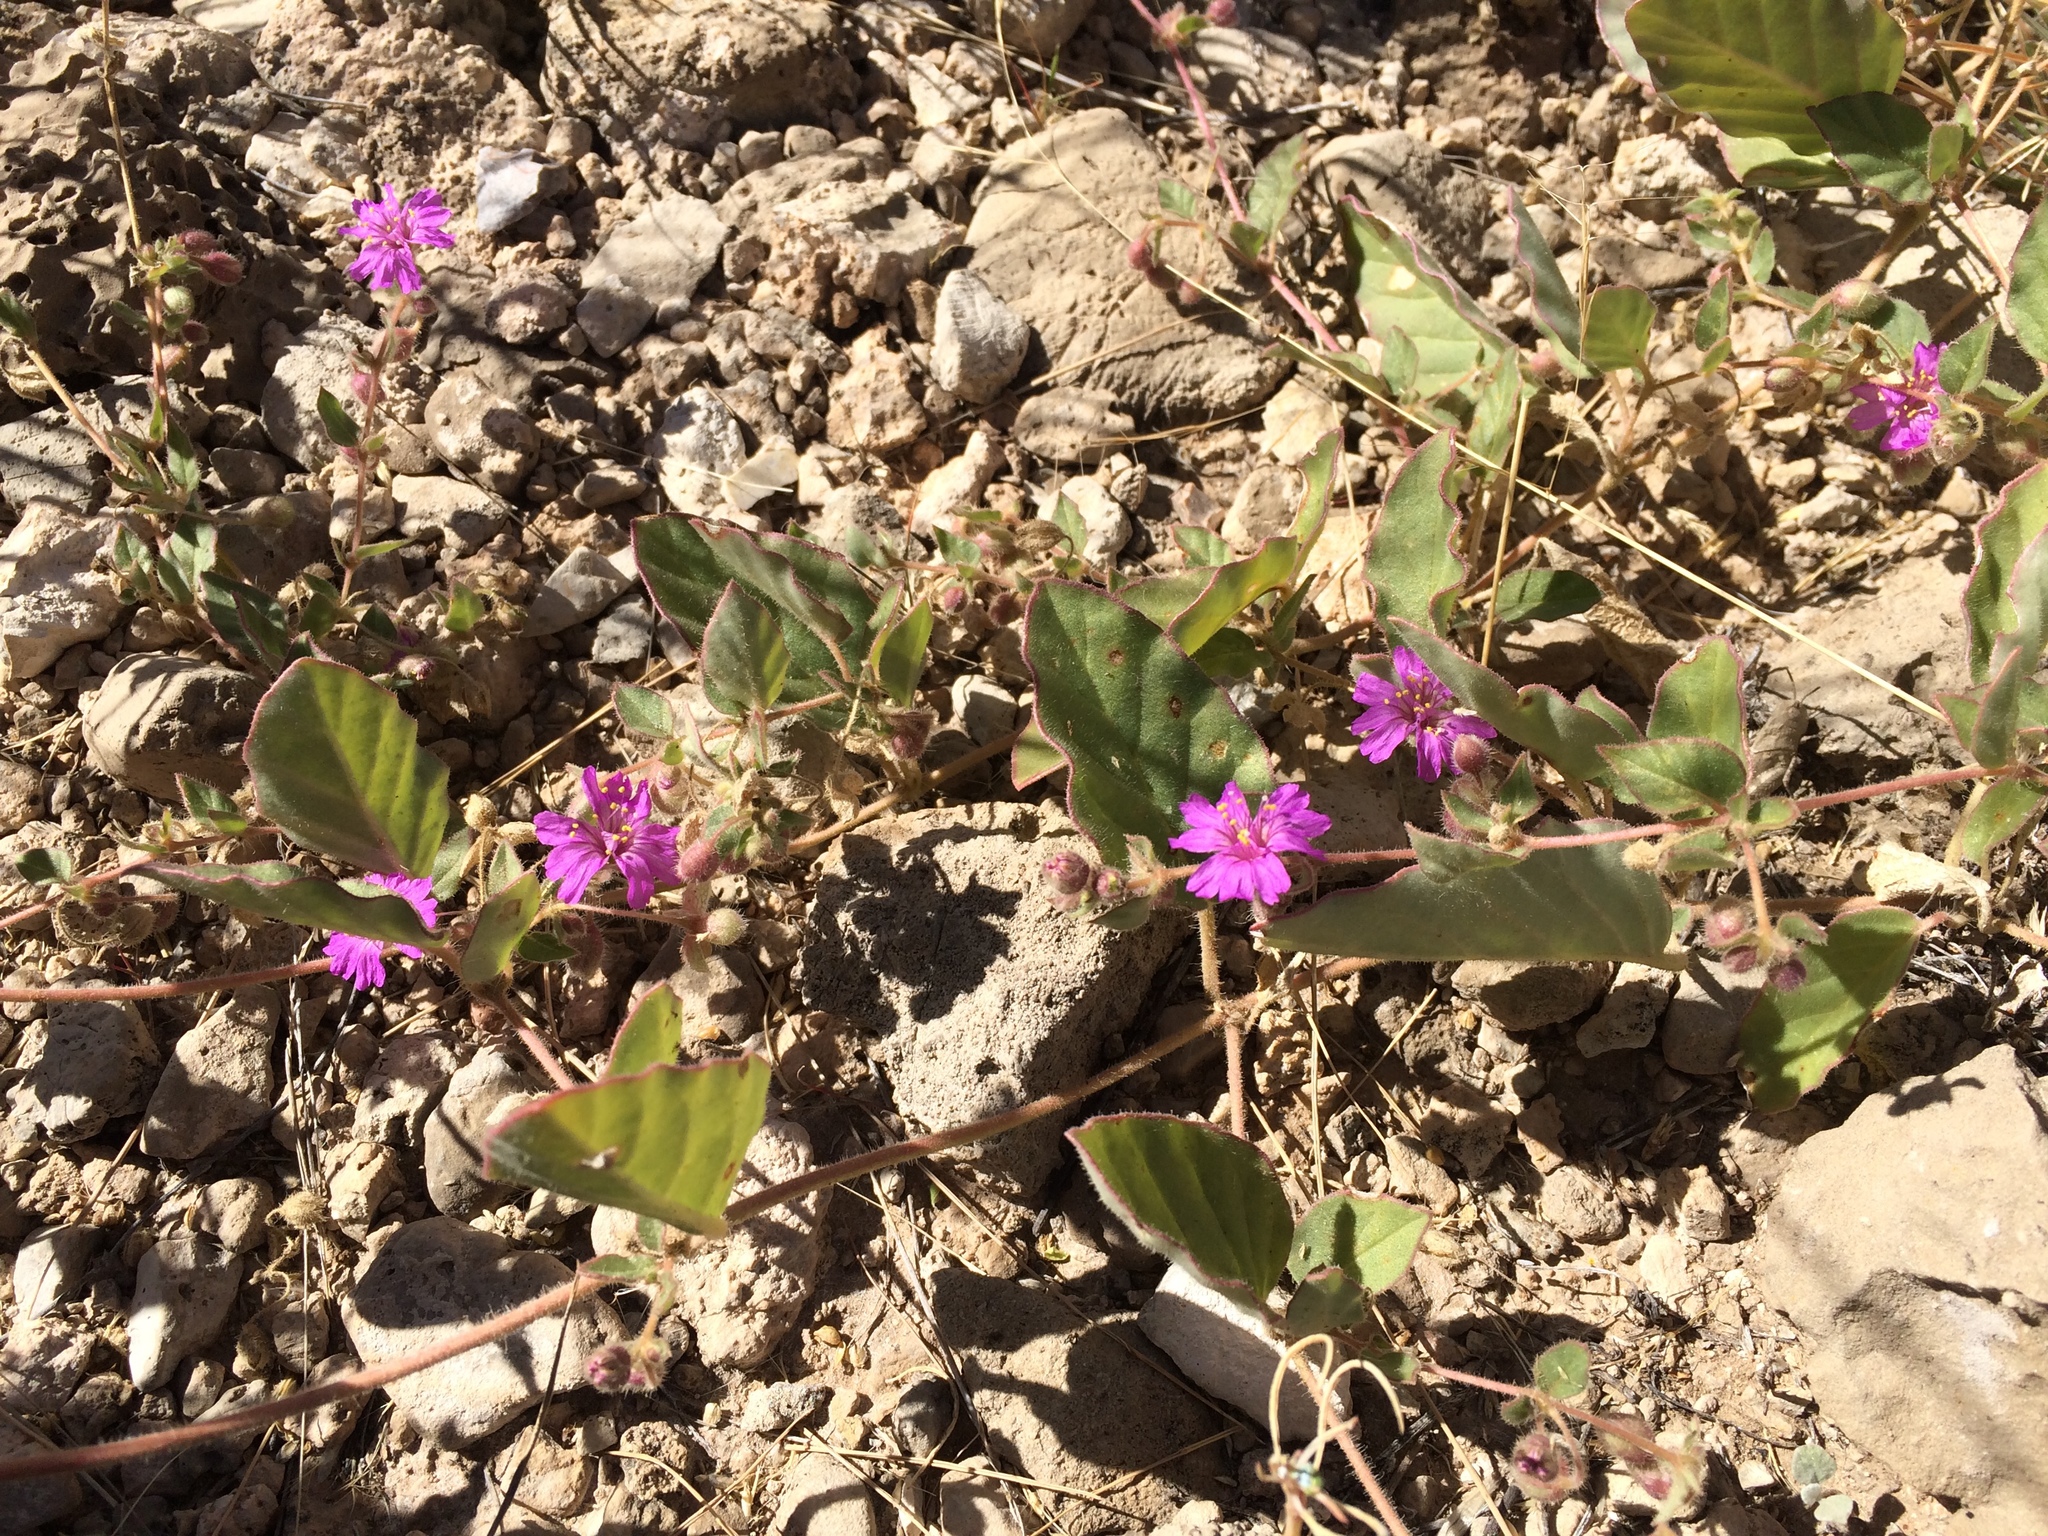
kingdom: Plantae
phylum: Tracheophyta
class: Magnoliopsida
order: Caryophyllales
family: Nyctaginaceae
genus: Allionia
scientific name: Allionia incarnata
